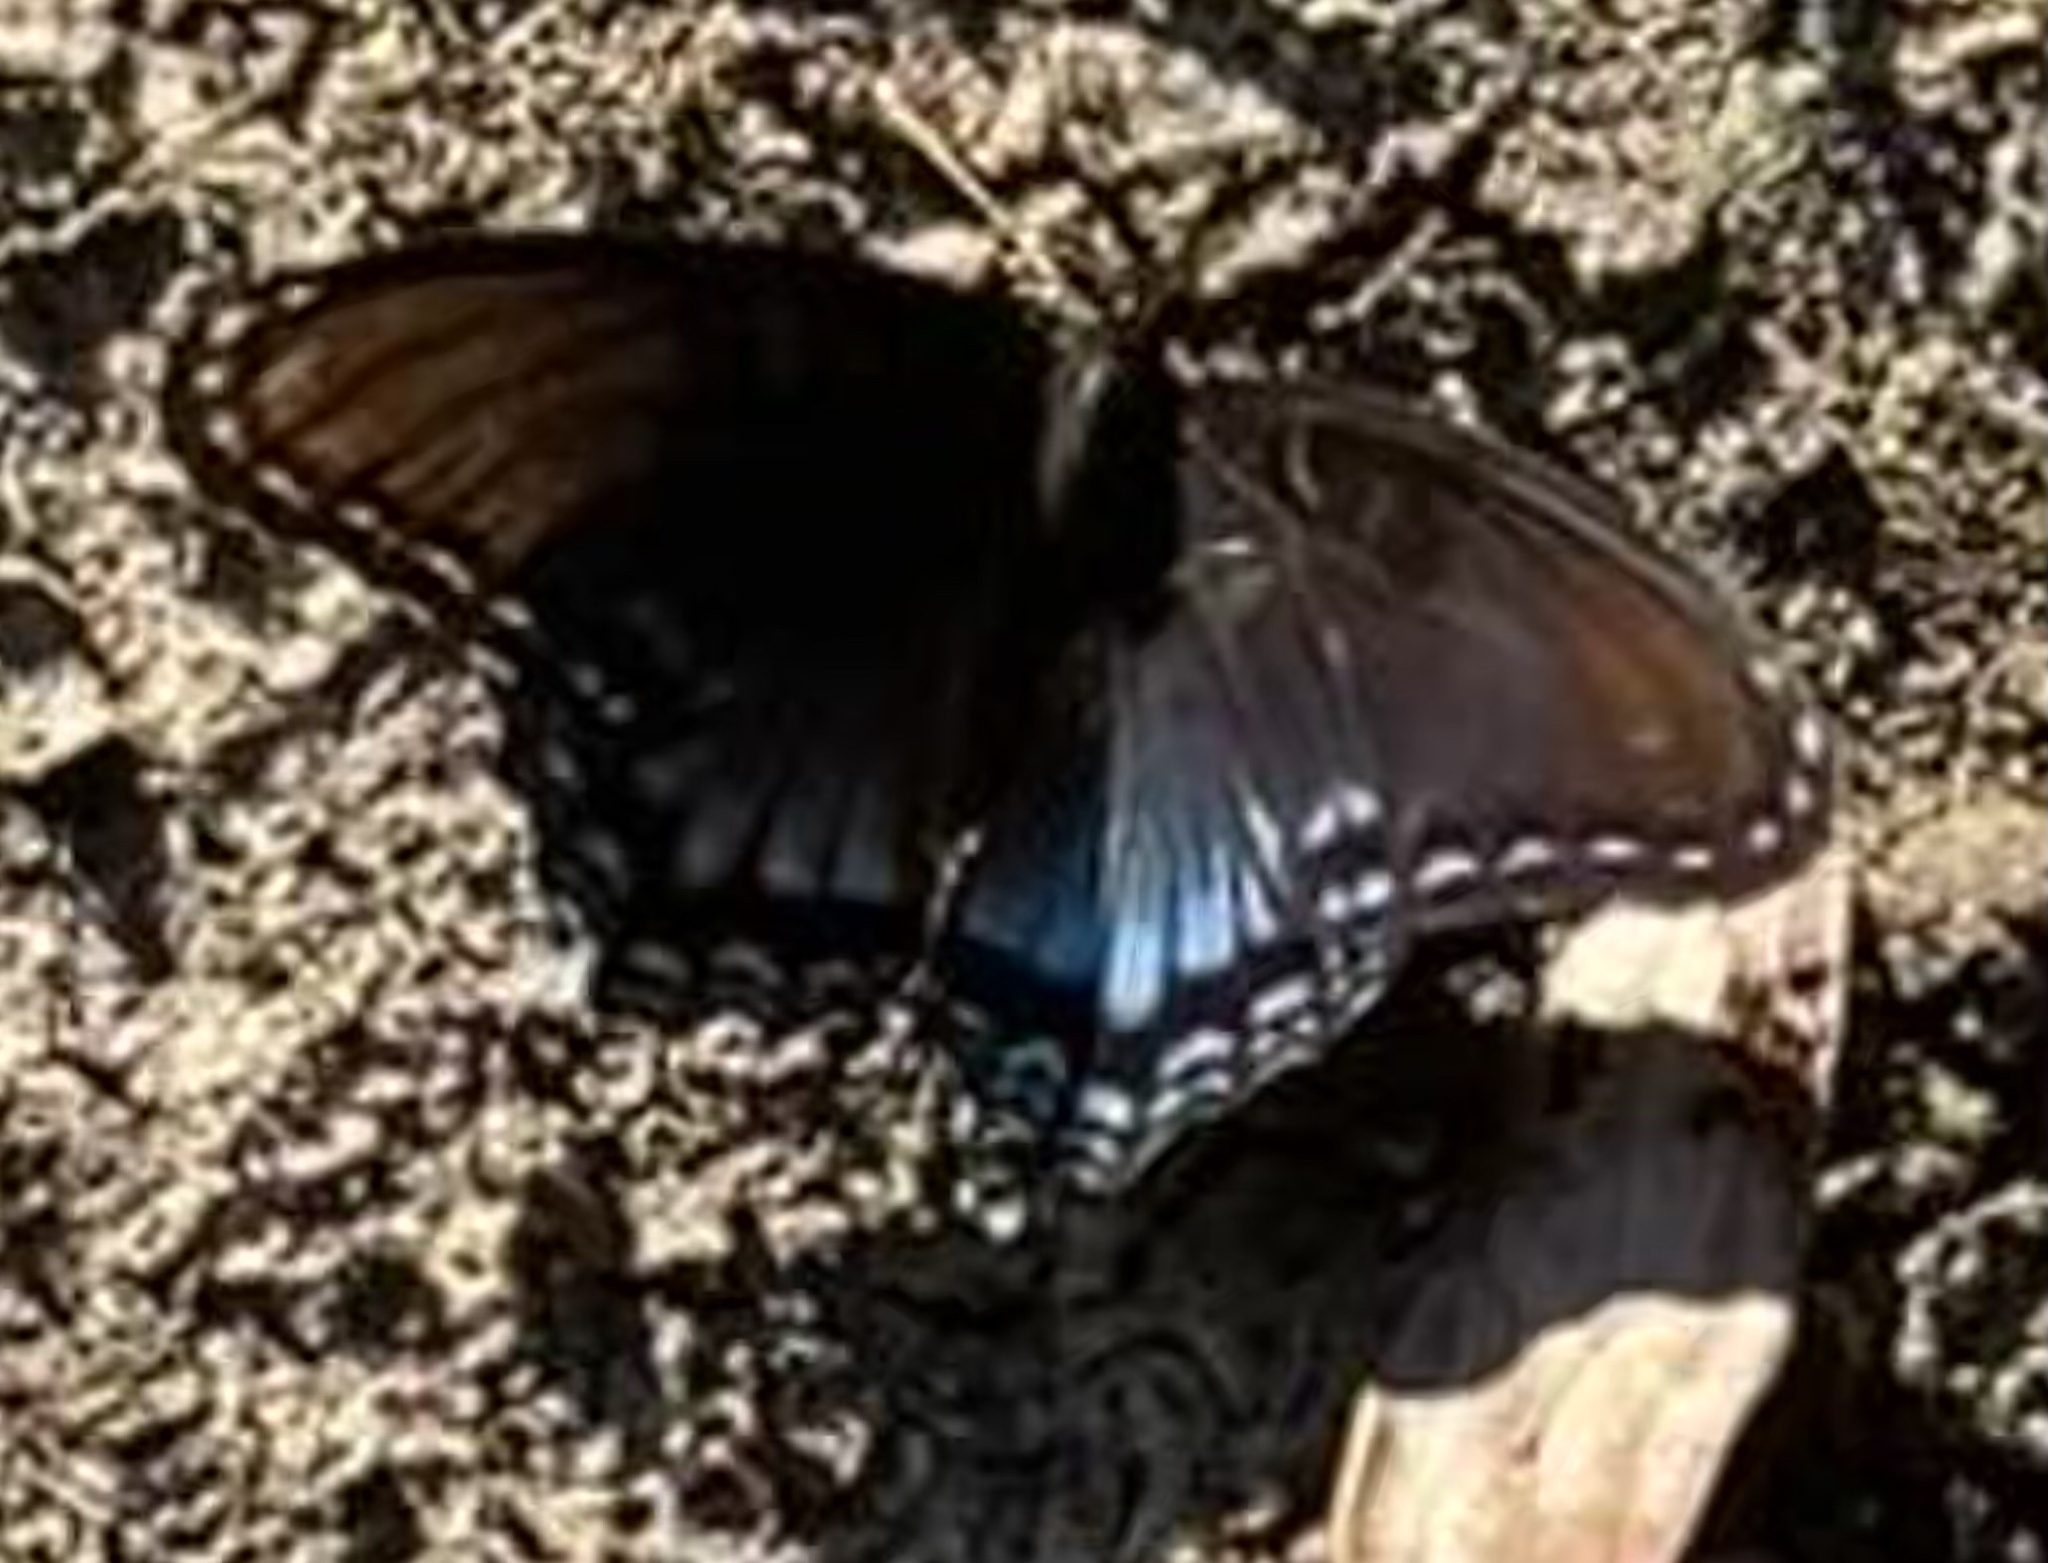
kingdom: Animalia
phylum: Arthropoda
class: Insecta
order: Lepidoptera
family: Nymphalidae
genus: Limenitis
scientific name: Limenitis astyanax
